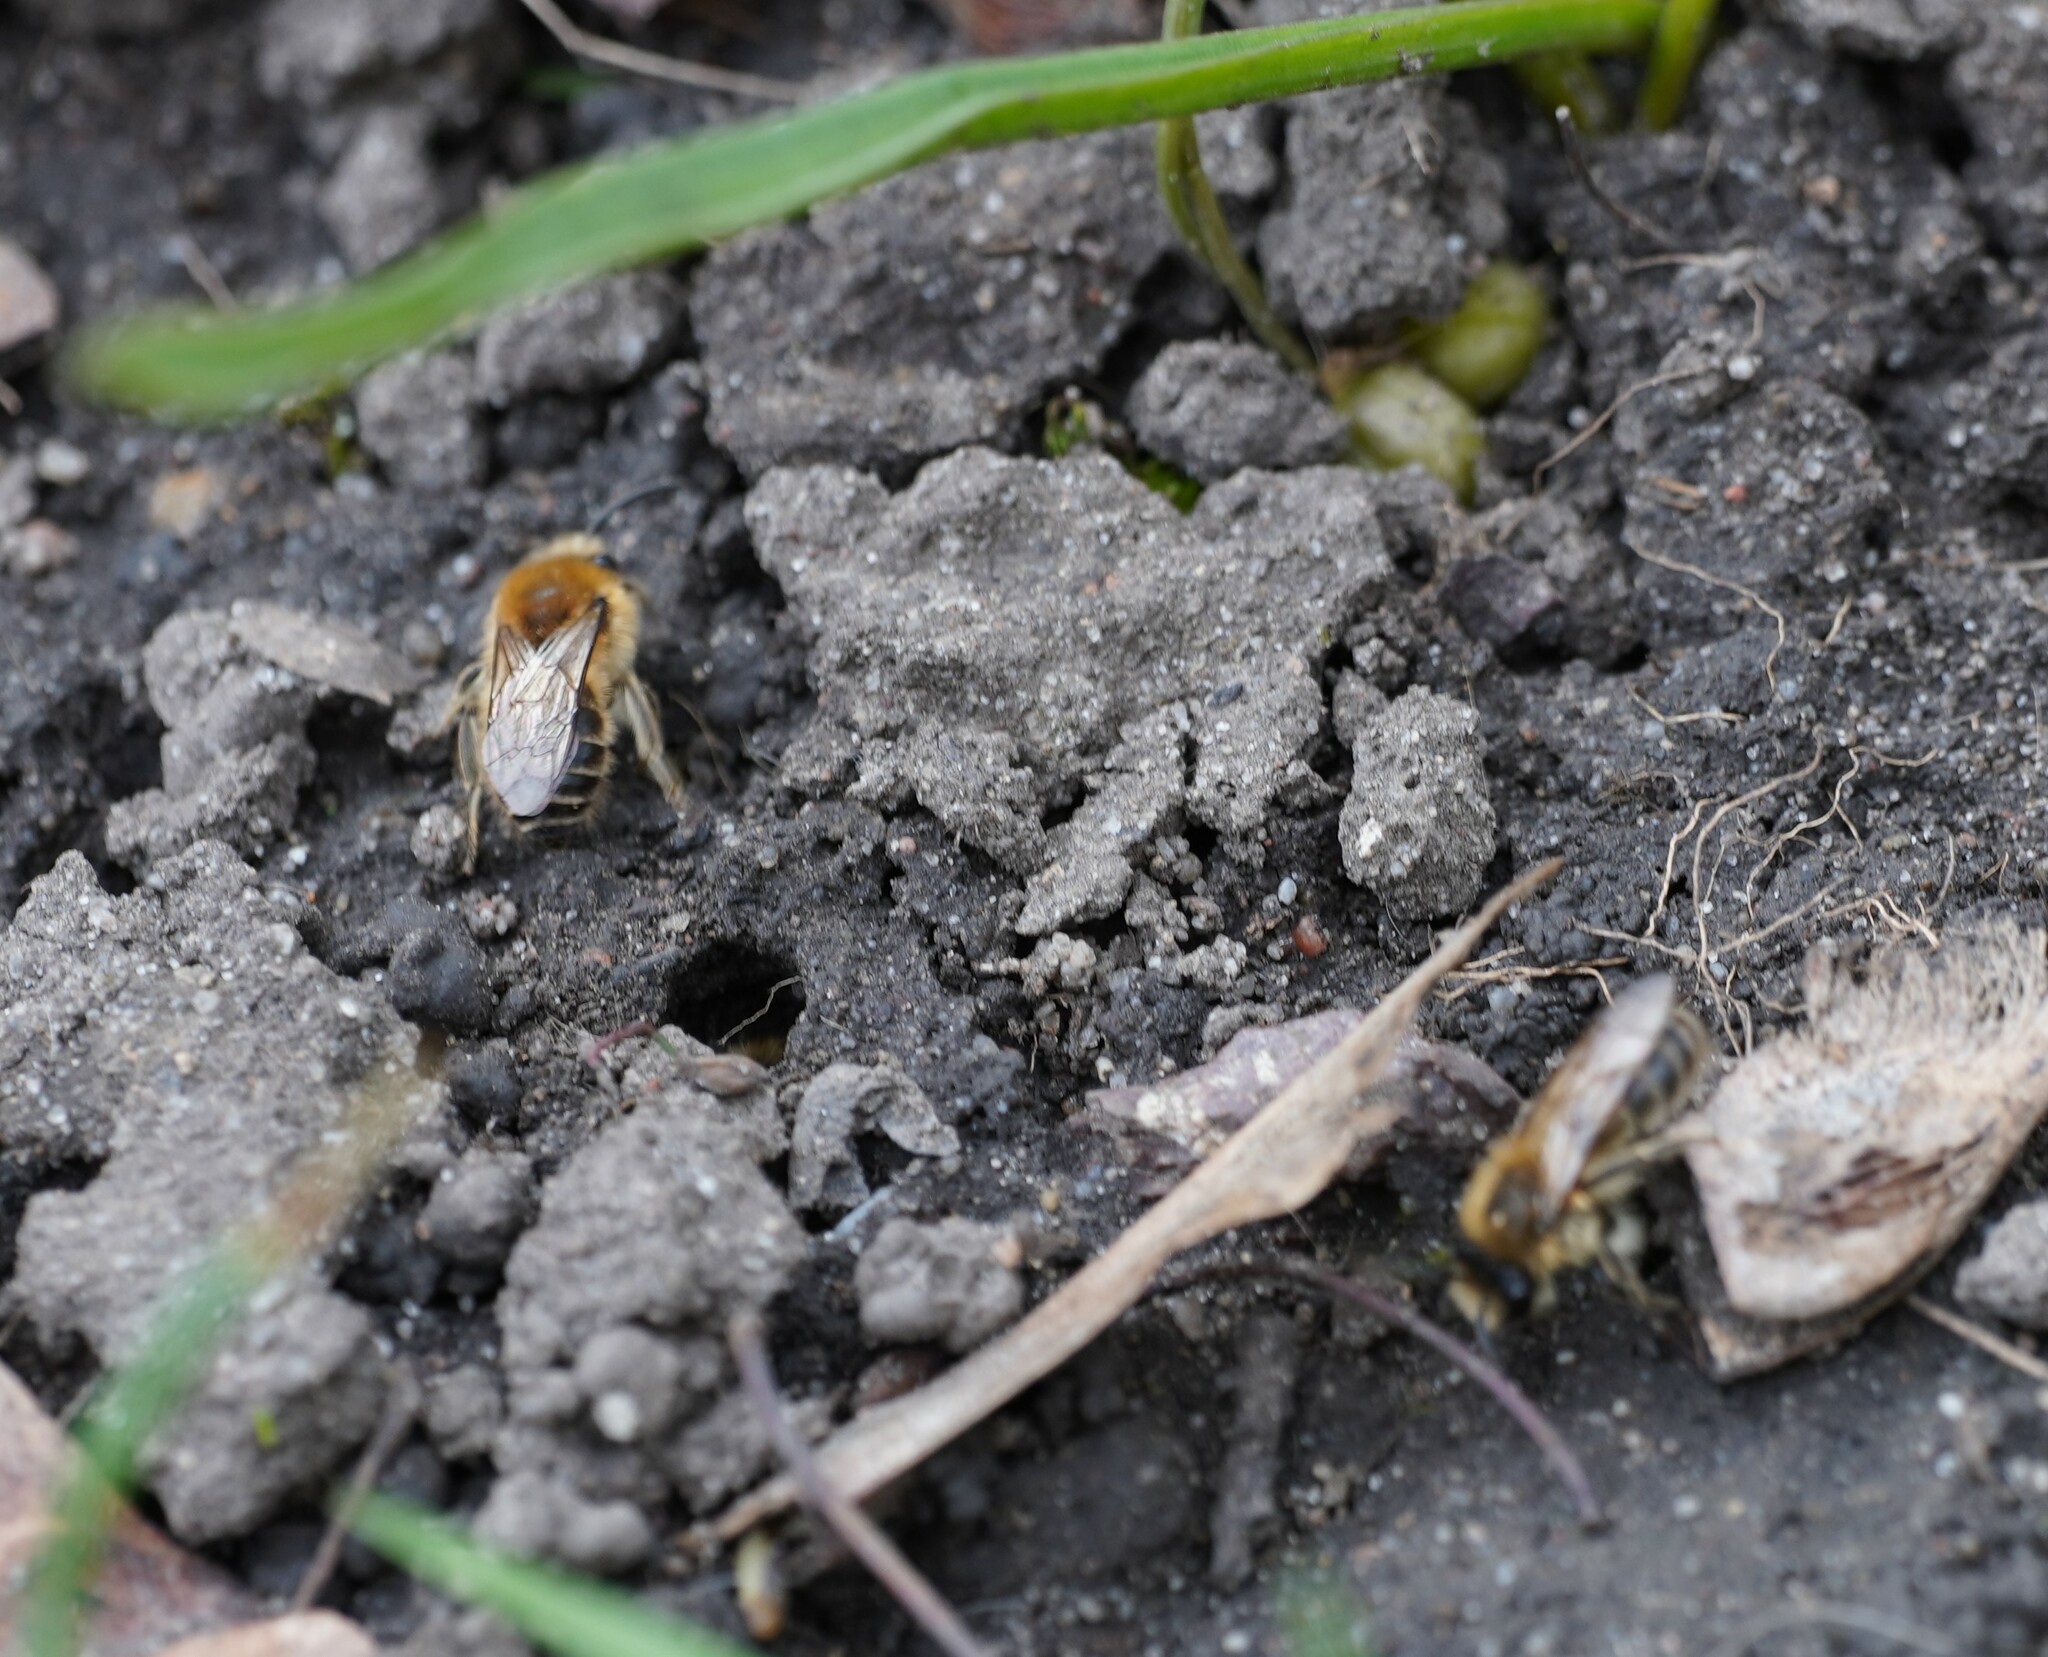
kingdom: Animalia
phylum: Arthropoda
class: Insecta
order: Hymenoptera
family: Colletidae
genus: Colletes
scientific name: Colletes cunicularius
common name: Early colletes
